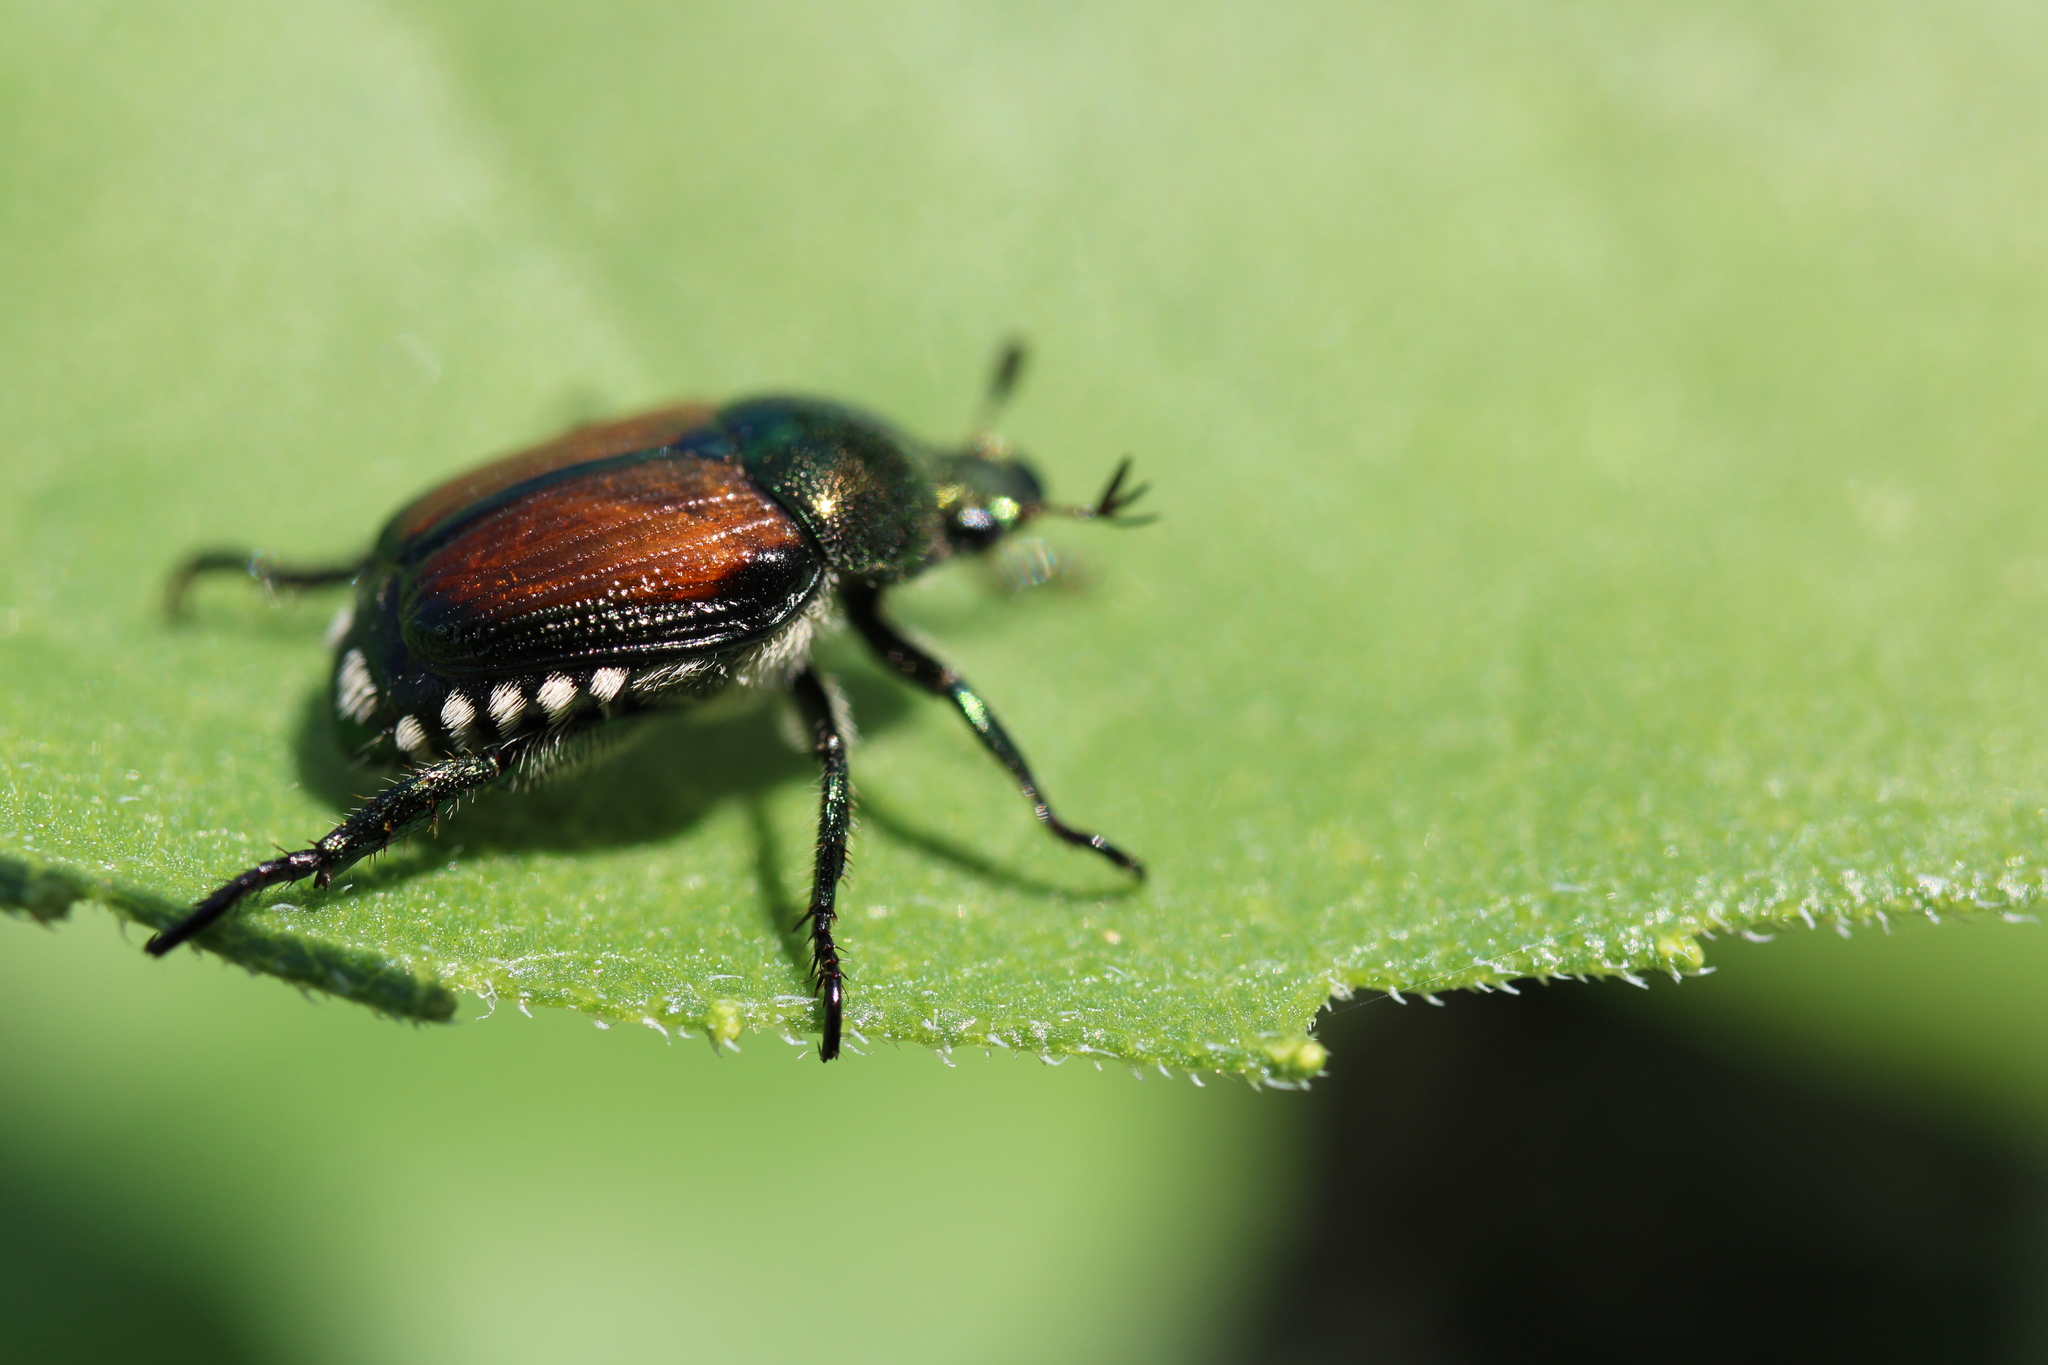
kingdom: Animalia
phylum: Arthropoda
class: Insecta
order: Coleoptera
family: Scarabaeidae
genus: Popillia
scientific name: Popillia japonica
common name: Japanese beetle
